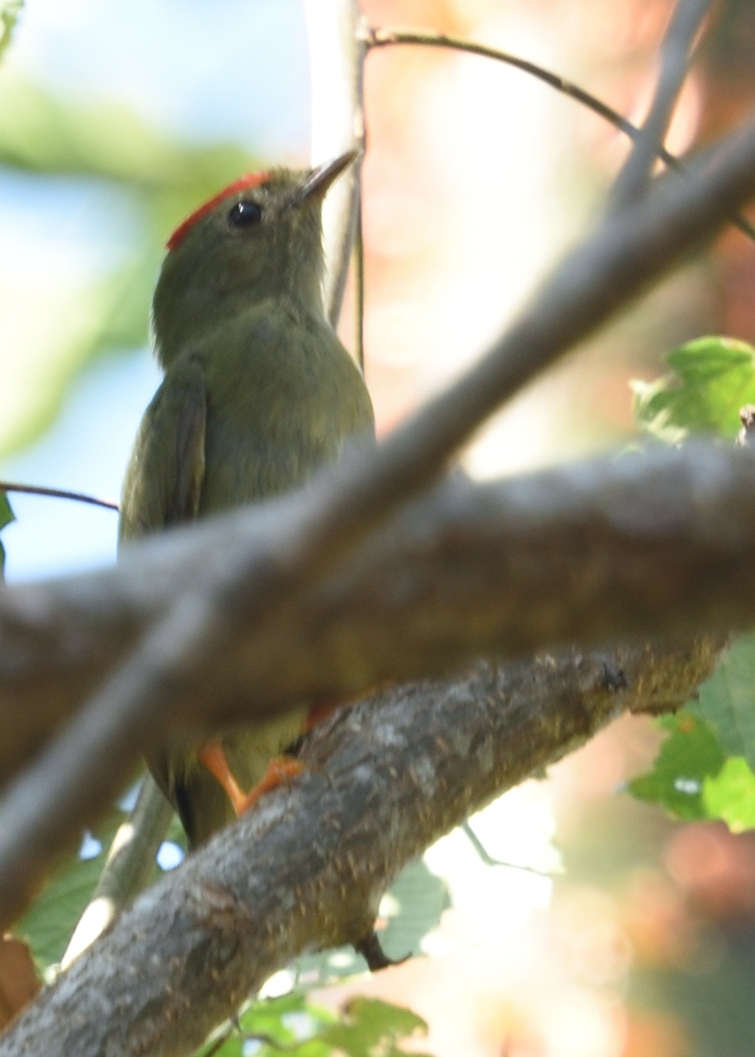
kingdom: Animalia
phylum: Chordata
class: Aves
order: Passeriformes
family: Pipridae
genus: Chiroxiphia
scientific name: Chiroxiphia lanceolata
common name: Lance-tailed manakin
